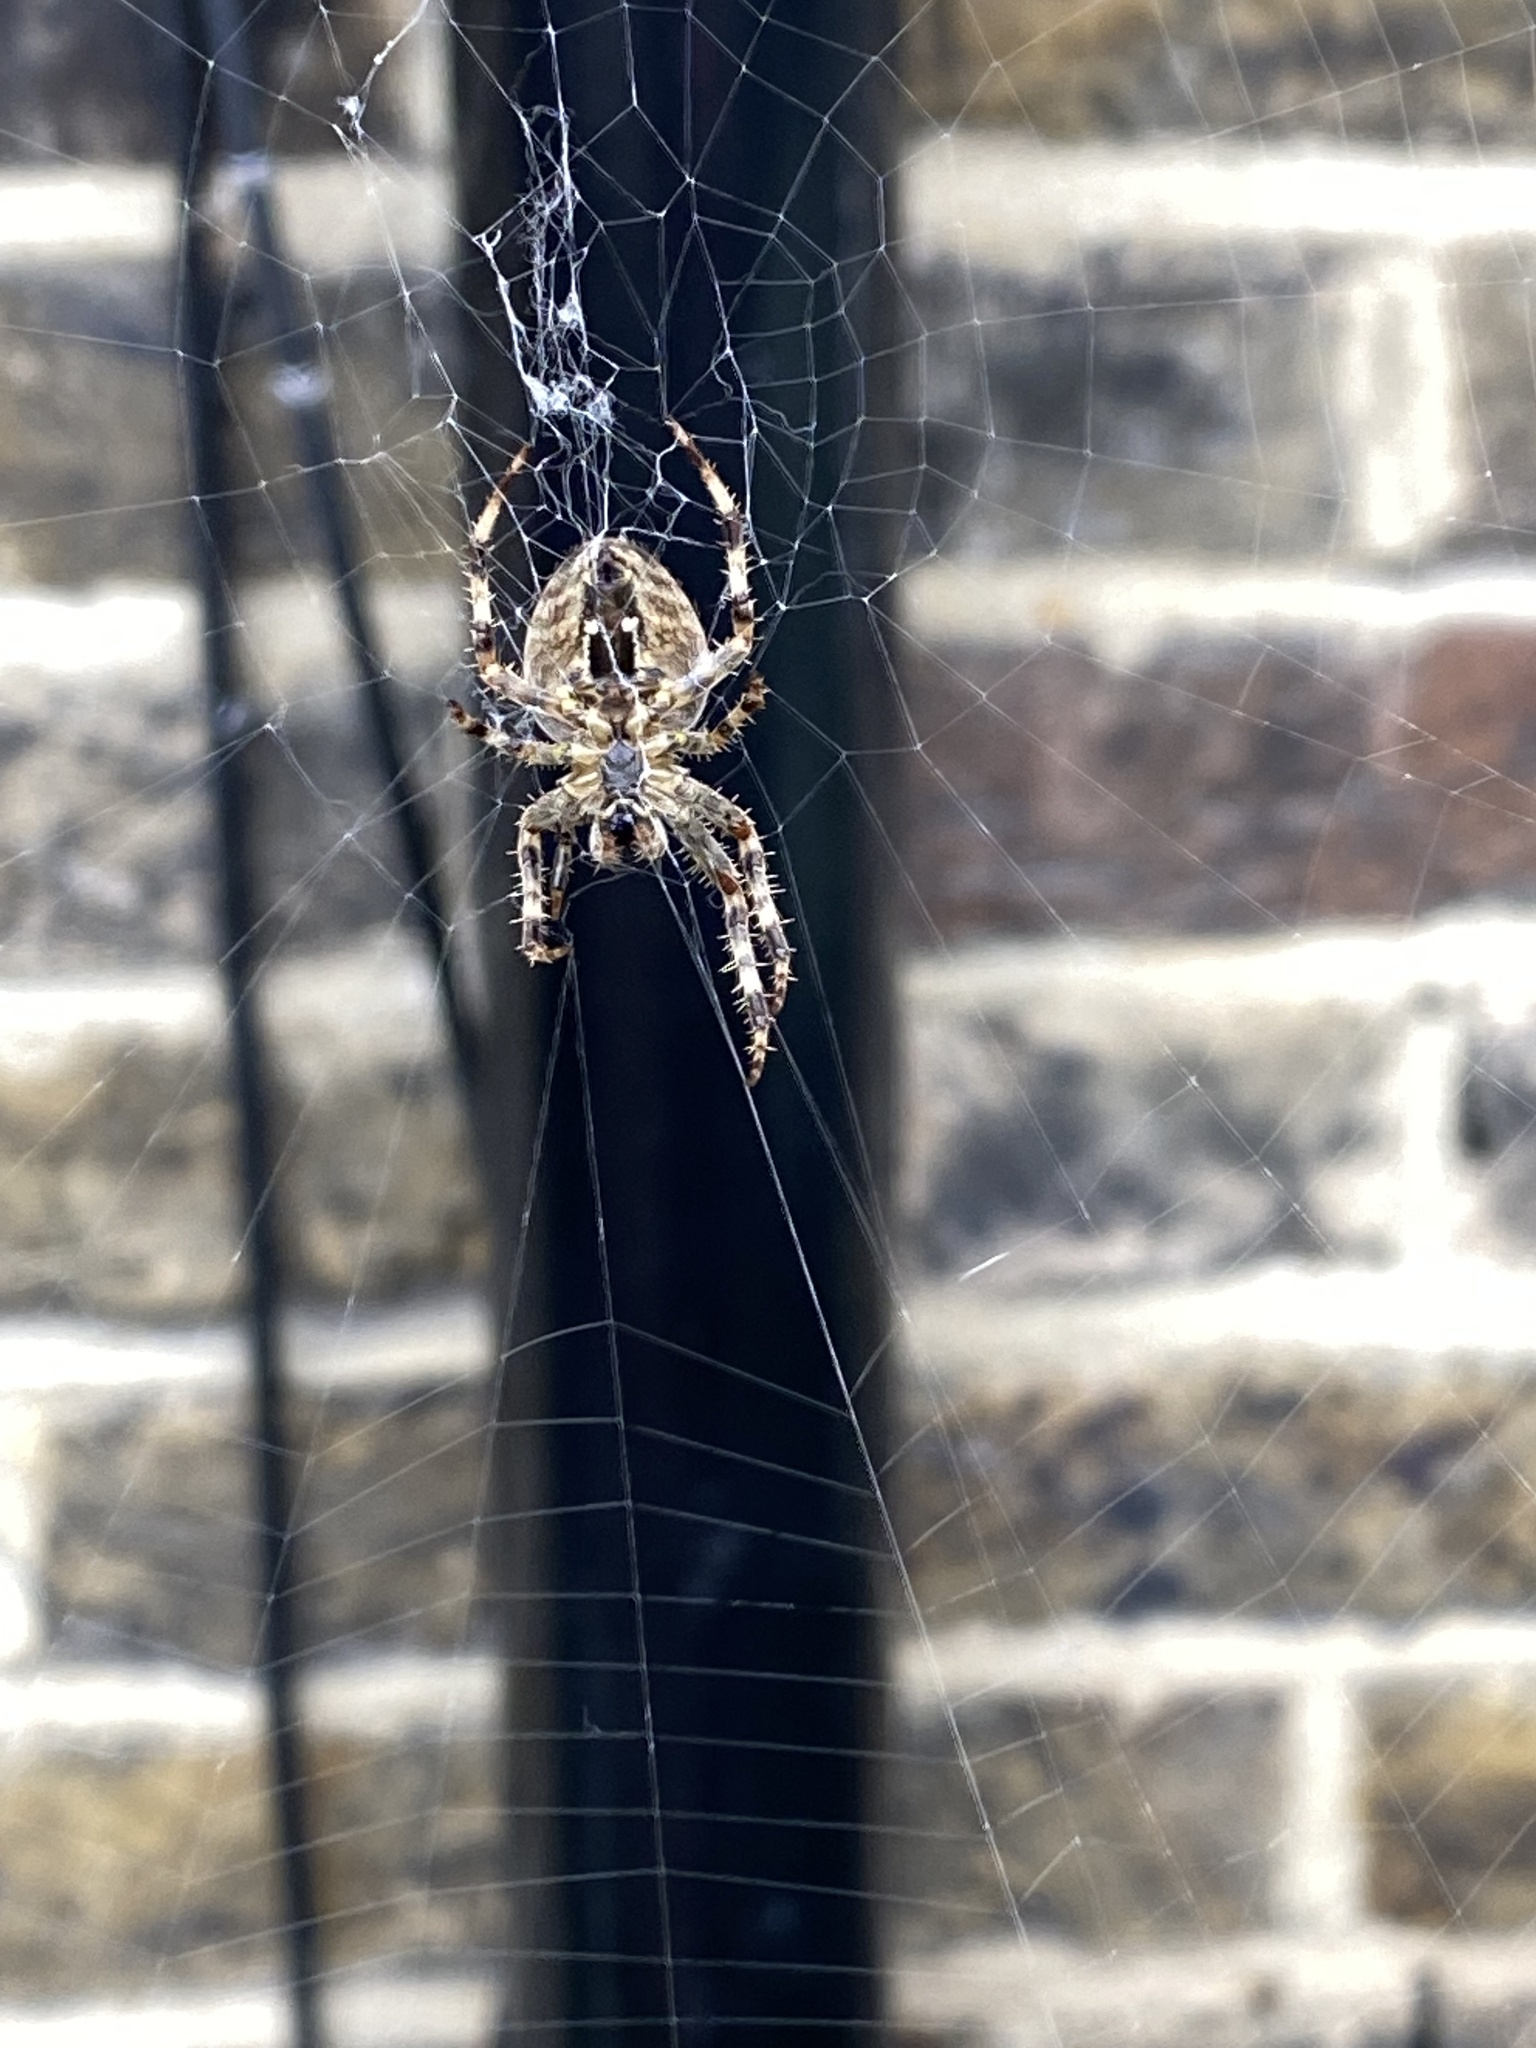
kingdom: Animalia
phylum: Arthropoda
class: Arachnida
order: Araneae
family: Araneidae
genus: Araneus
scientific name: Araneus diadematus
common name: Cross orbweaver
